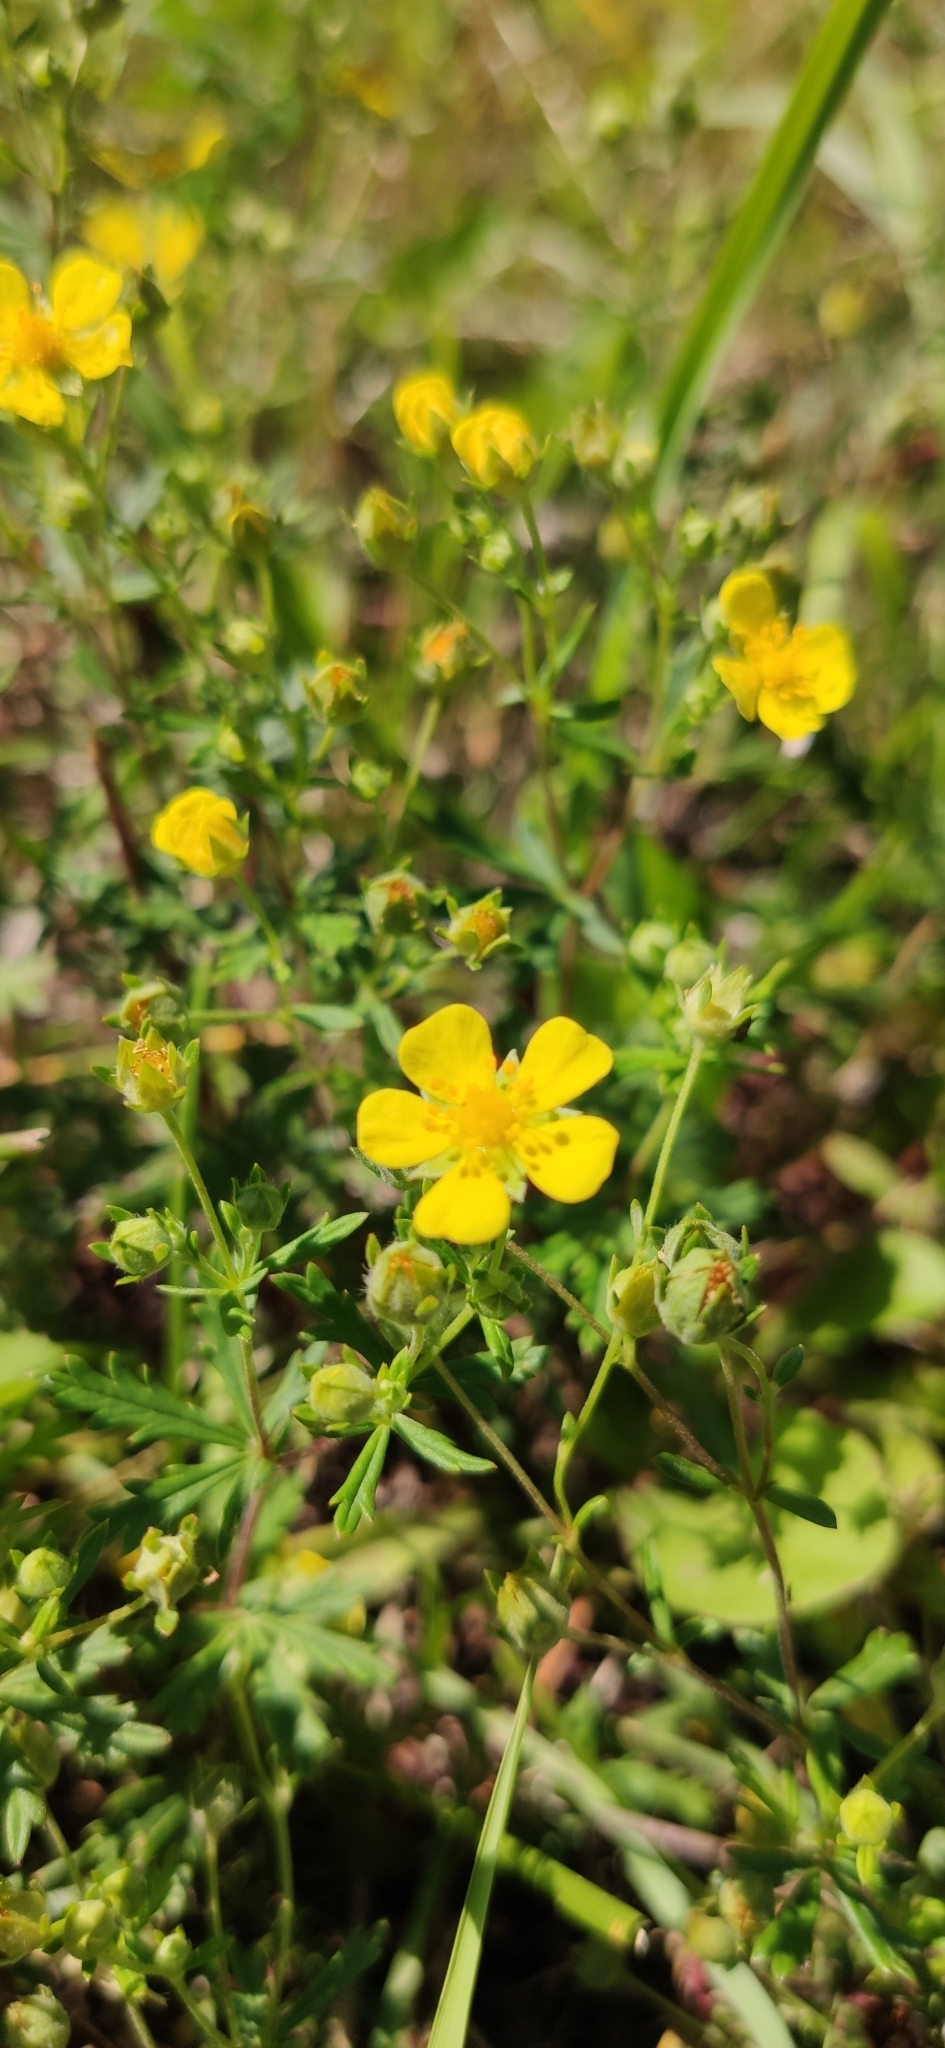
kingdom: Plantae
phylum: Tracheophyta
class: Magnoliopsida
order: Rosales
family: Rosaceae
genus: Potentilla
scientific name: Potentilla argentea
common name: Hoary cinquefoil
